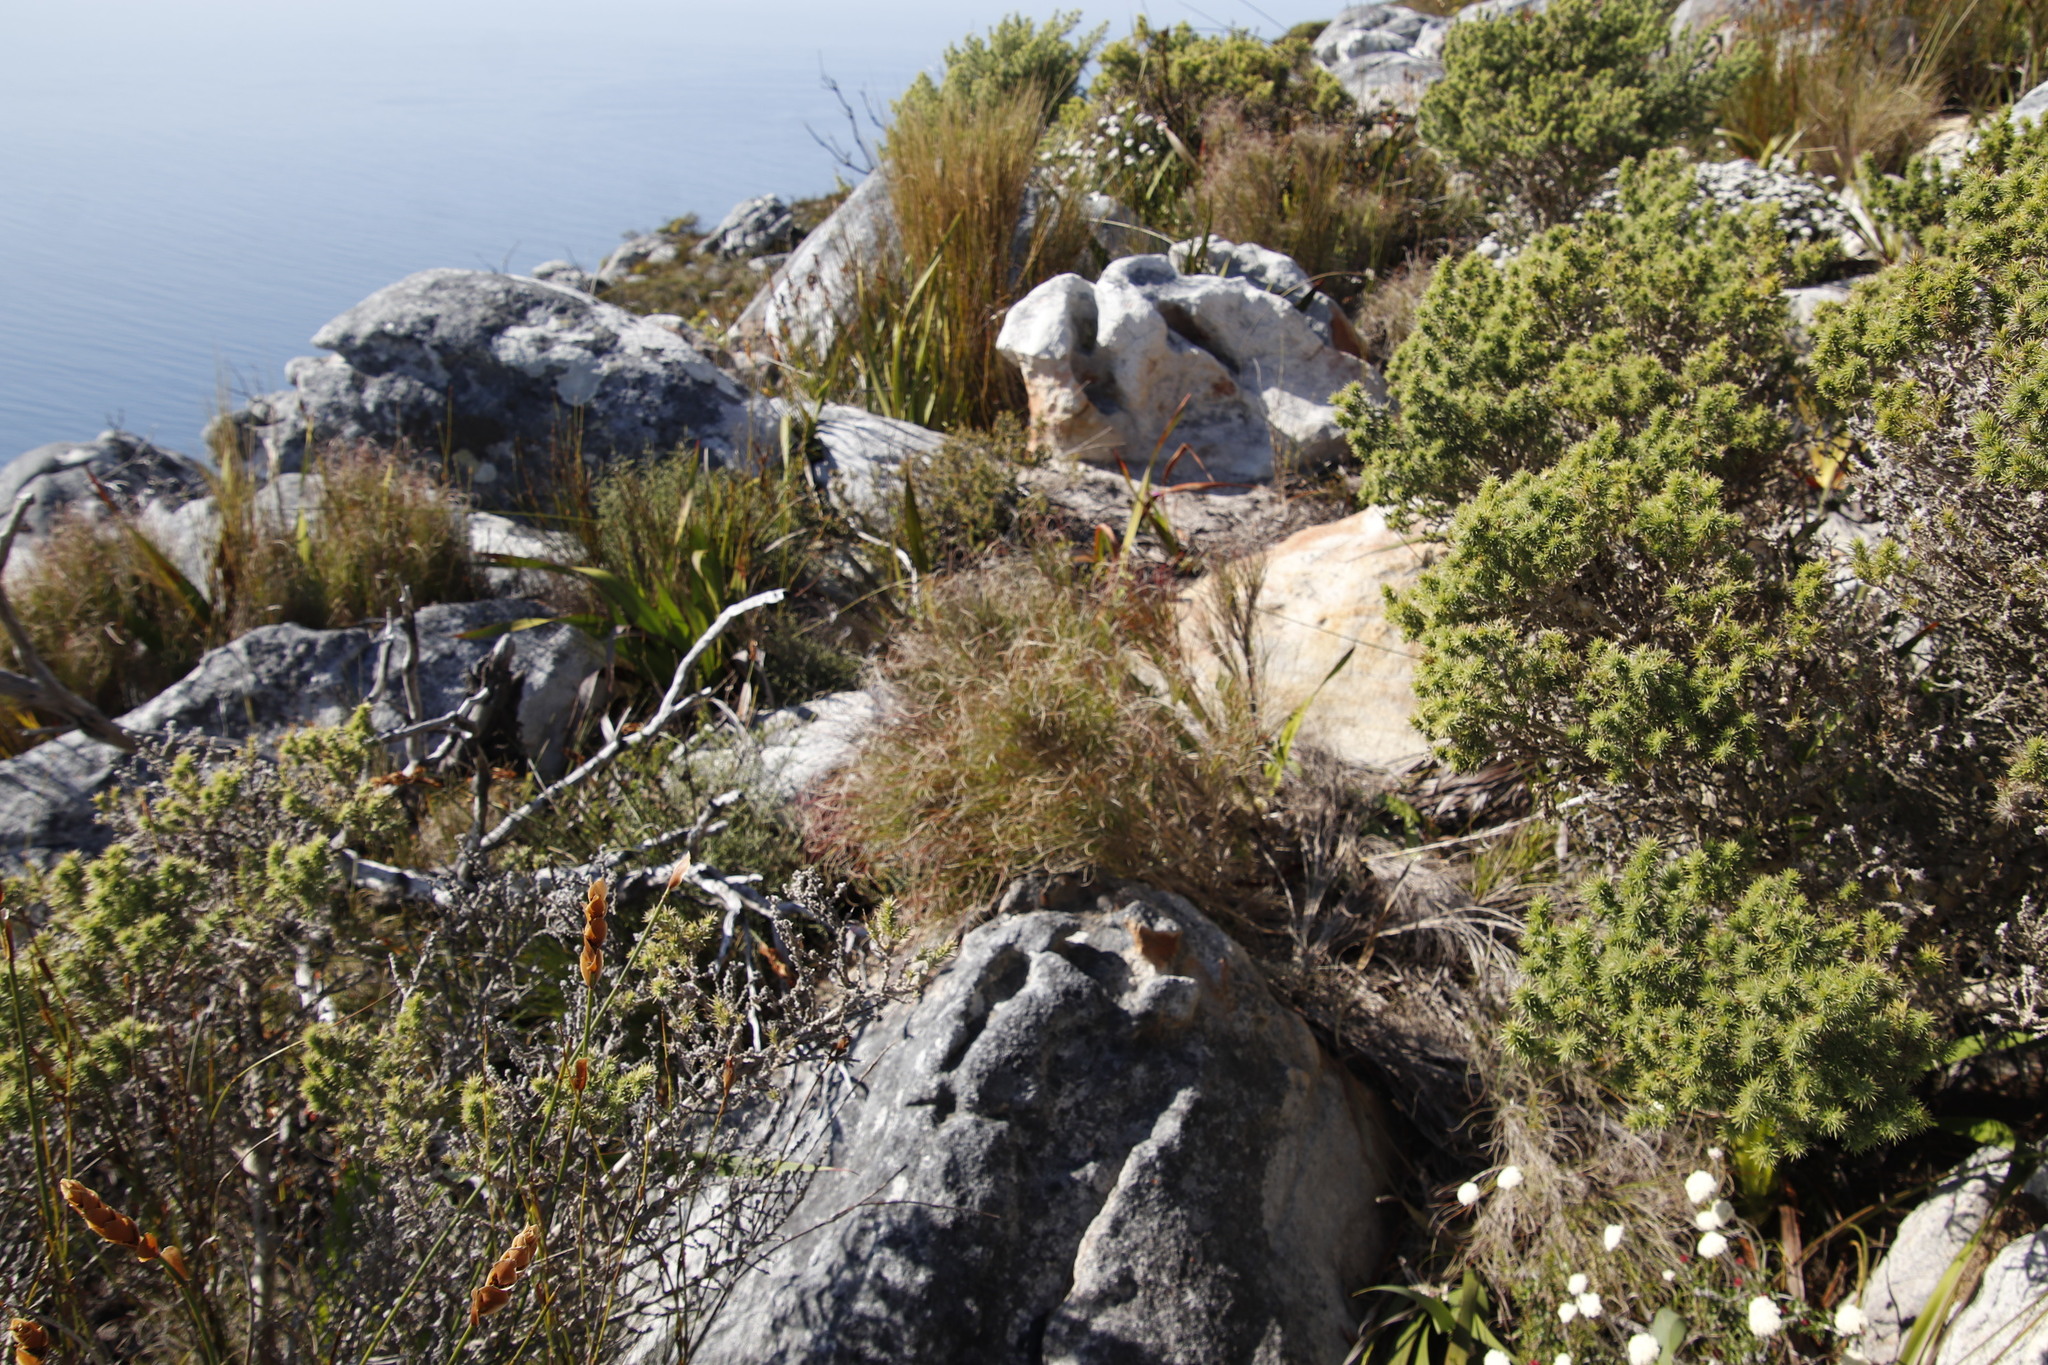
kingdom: Plantae
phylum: Tracheophyta
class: Liliopsida
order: Poales
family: Poaceae
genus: Pseudopentameris
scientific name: Pseudopentameris macrantha
